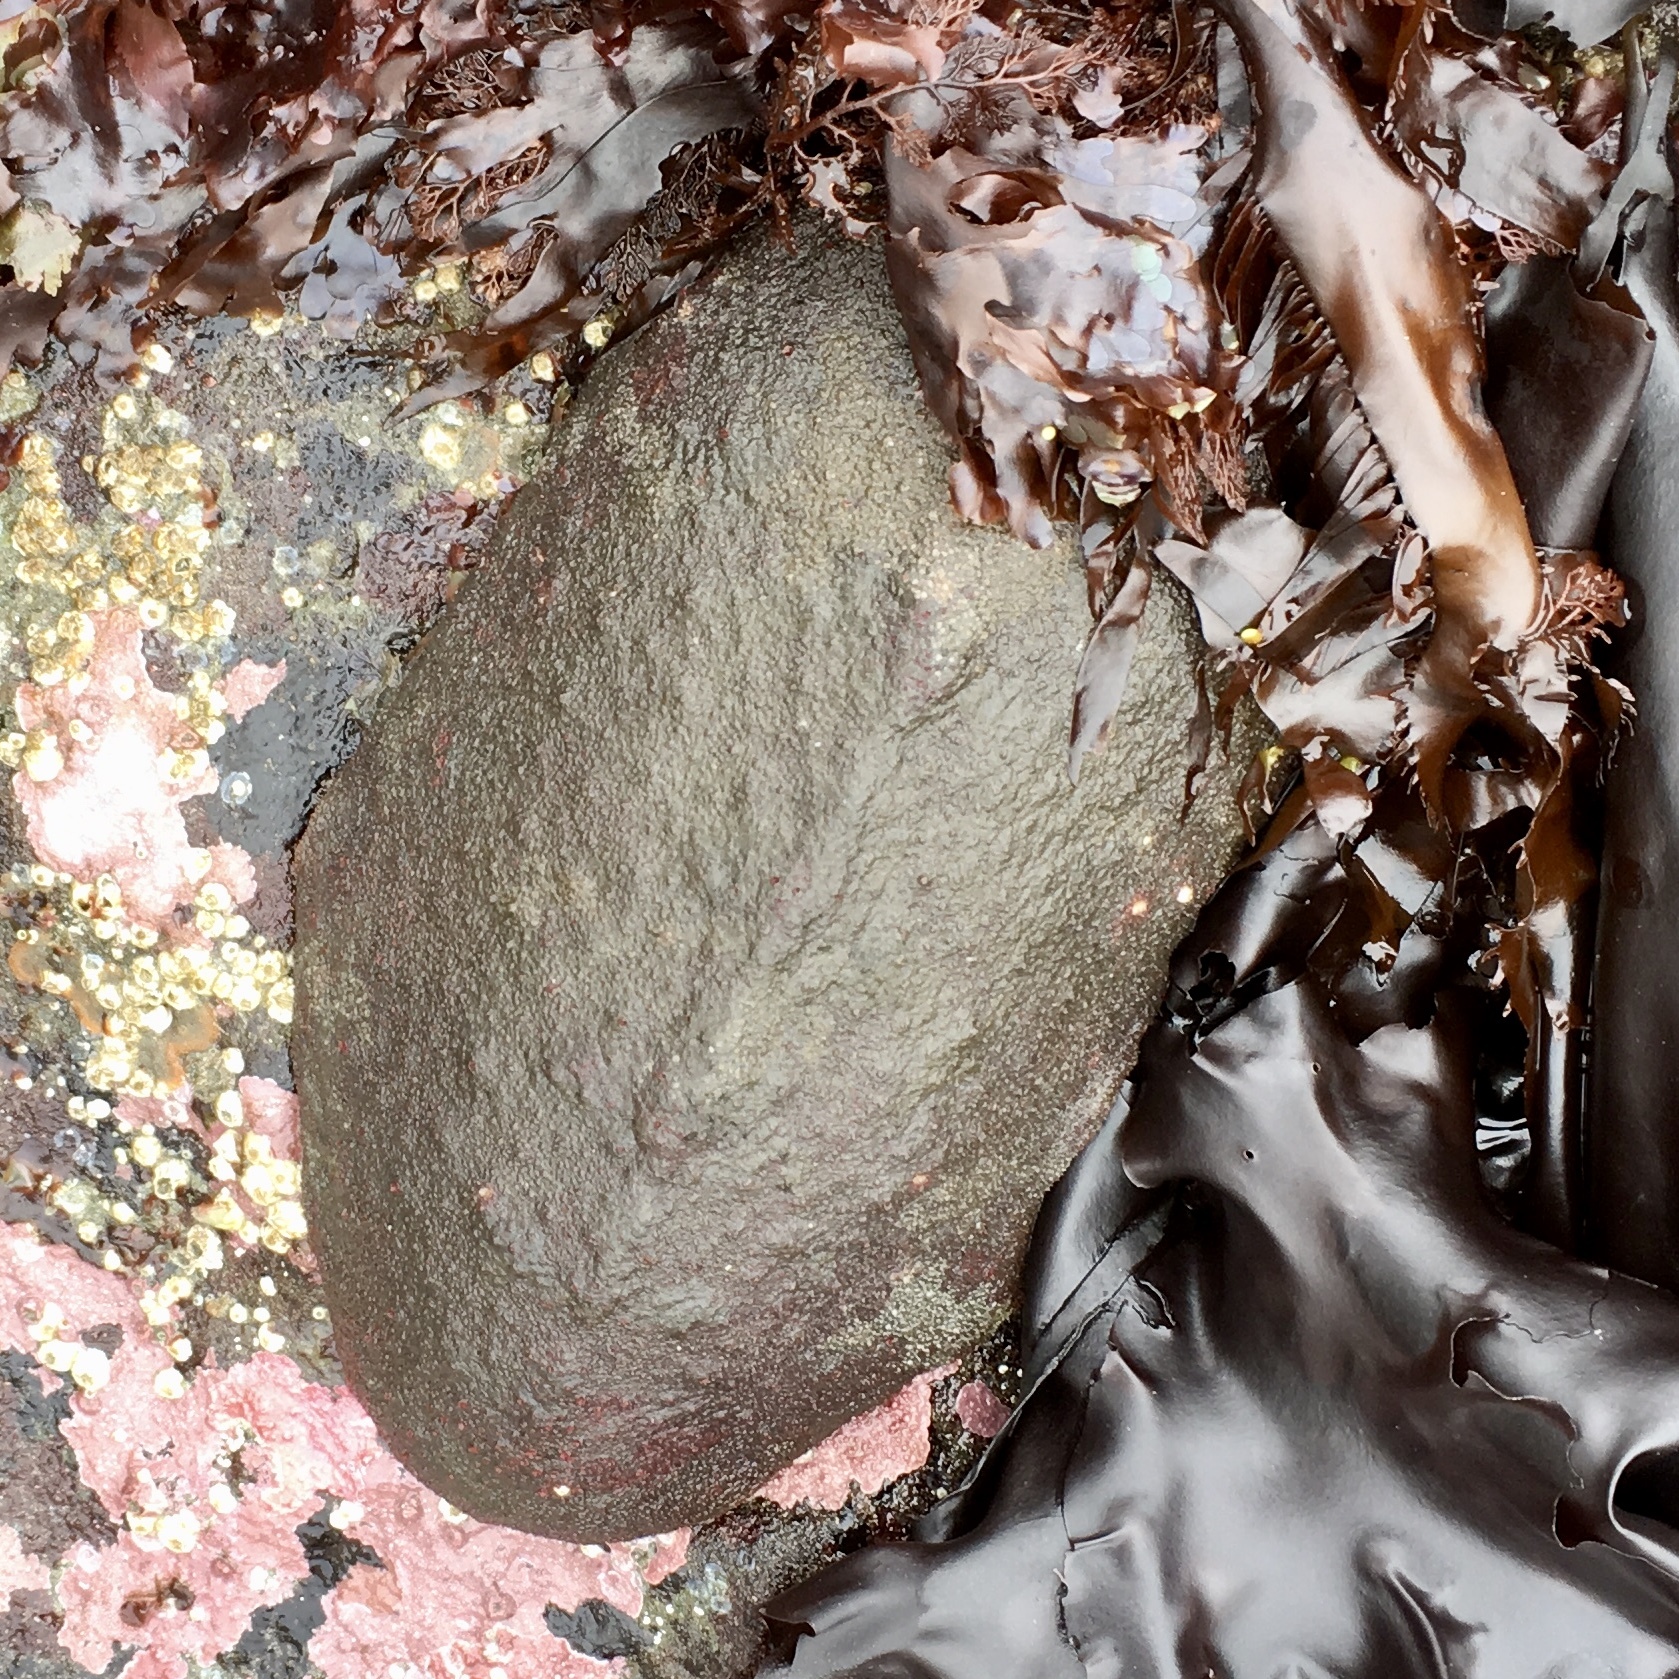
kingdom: Animalia
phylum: Mollusca
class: Polyplacophora
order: Chitonida
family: Acanthochitonidae
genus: Cryptochiton
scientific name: Cryptochiton stelleri
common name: Giant pacific chiton
